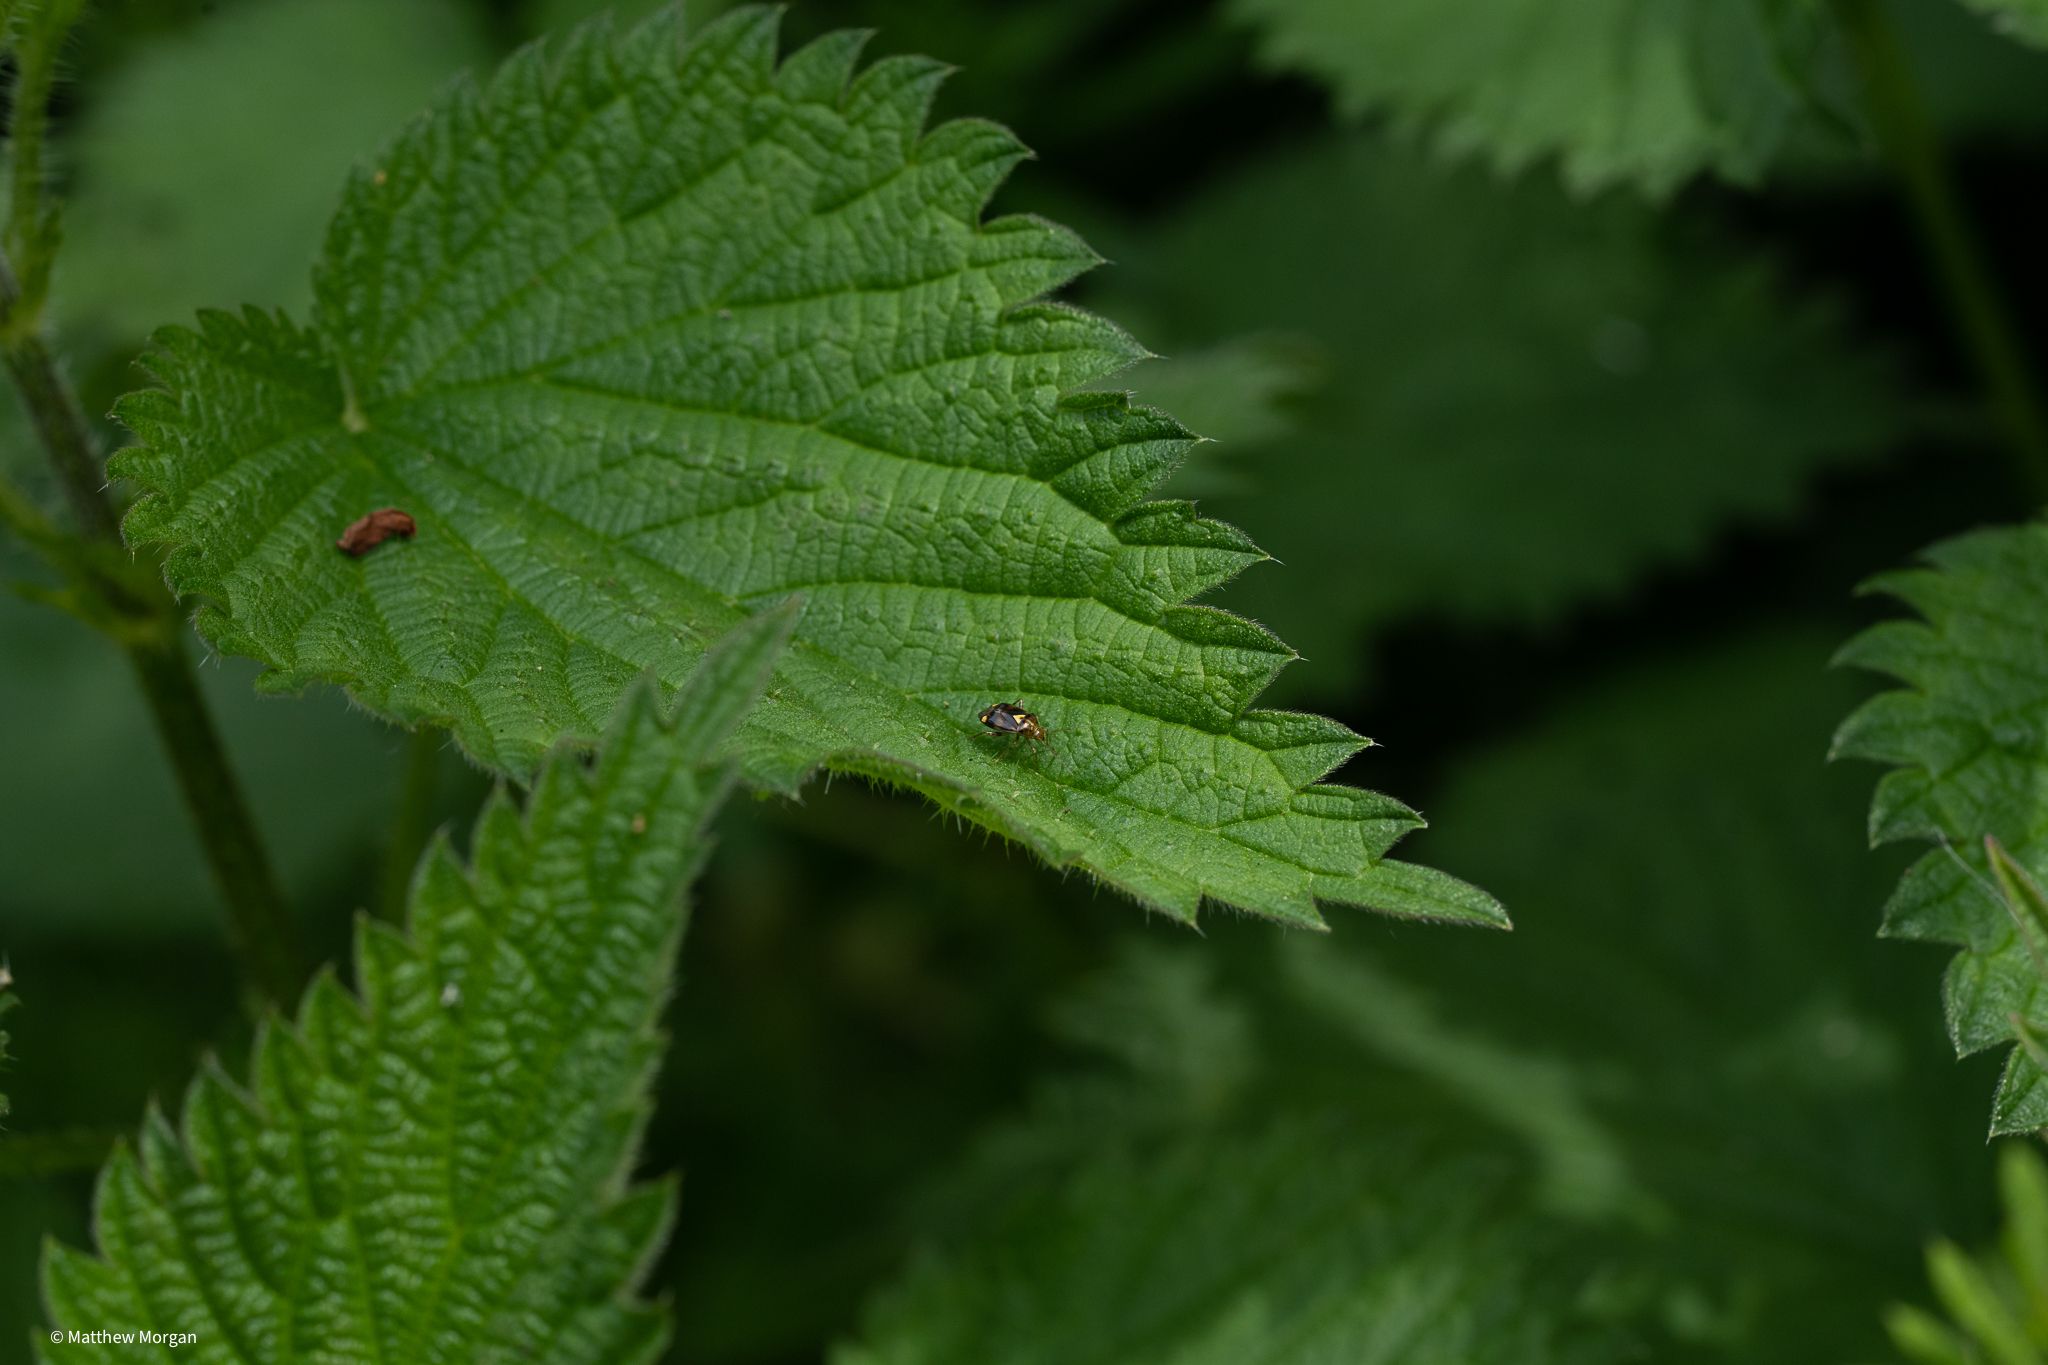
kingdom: Animalia
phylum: Arthropoda
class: Insecta
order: Hemiptera
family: Miridae
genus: Liocoris
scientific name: Liocoris tripustulatus
